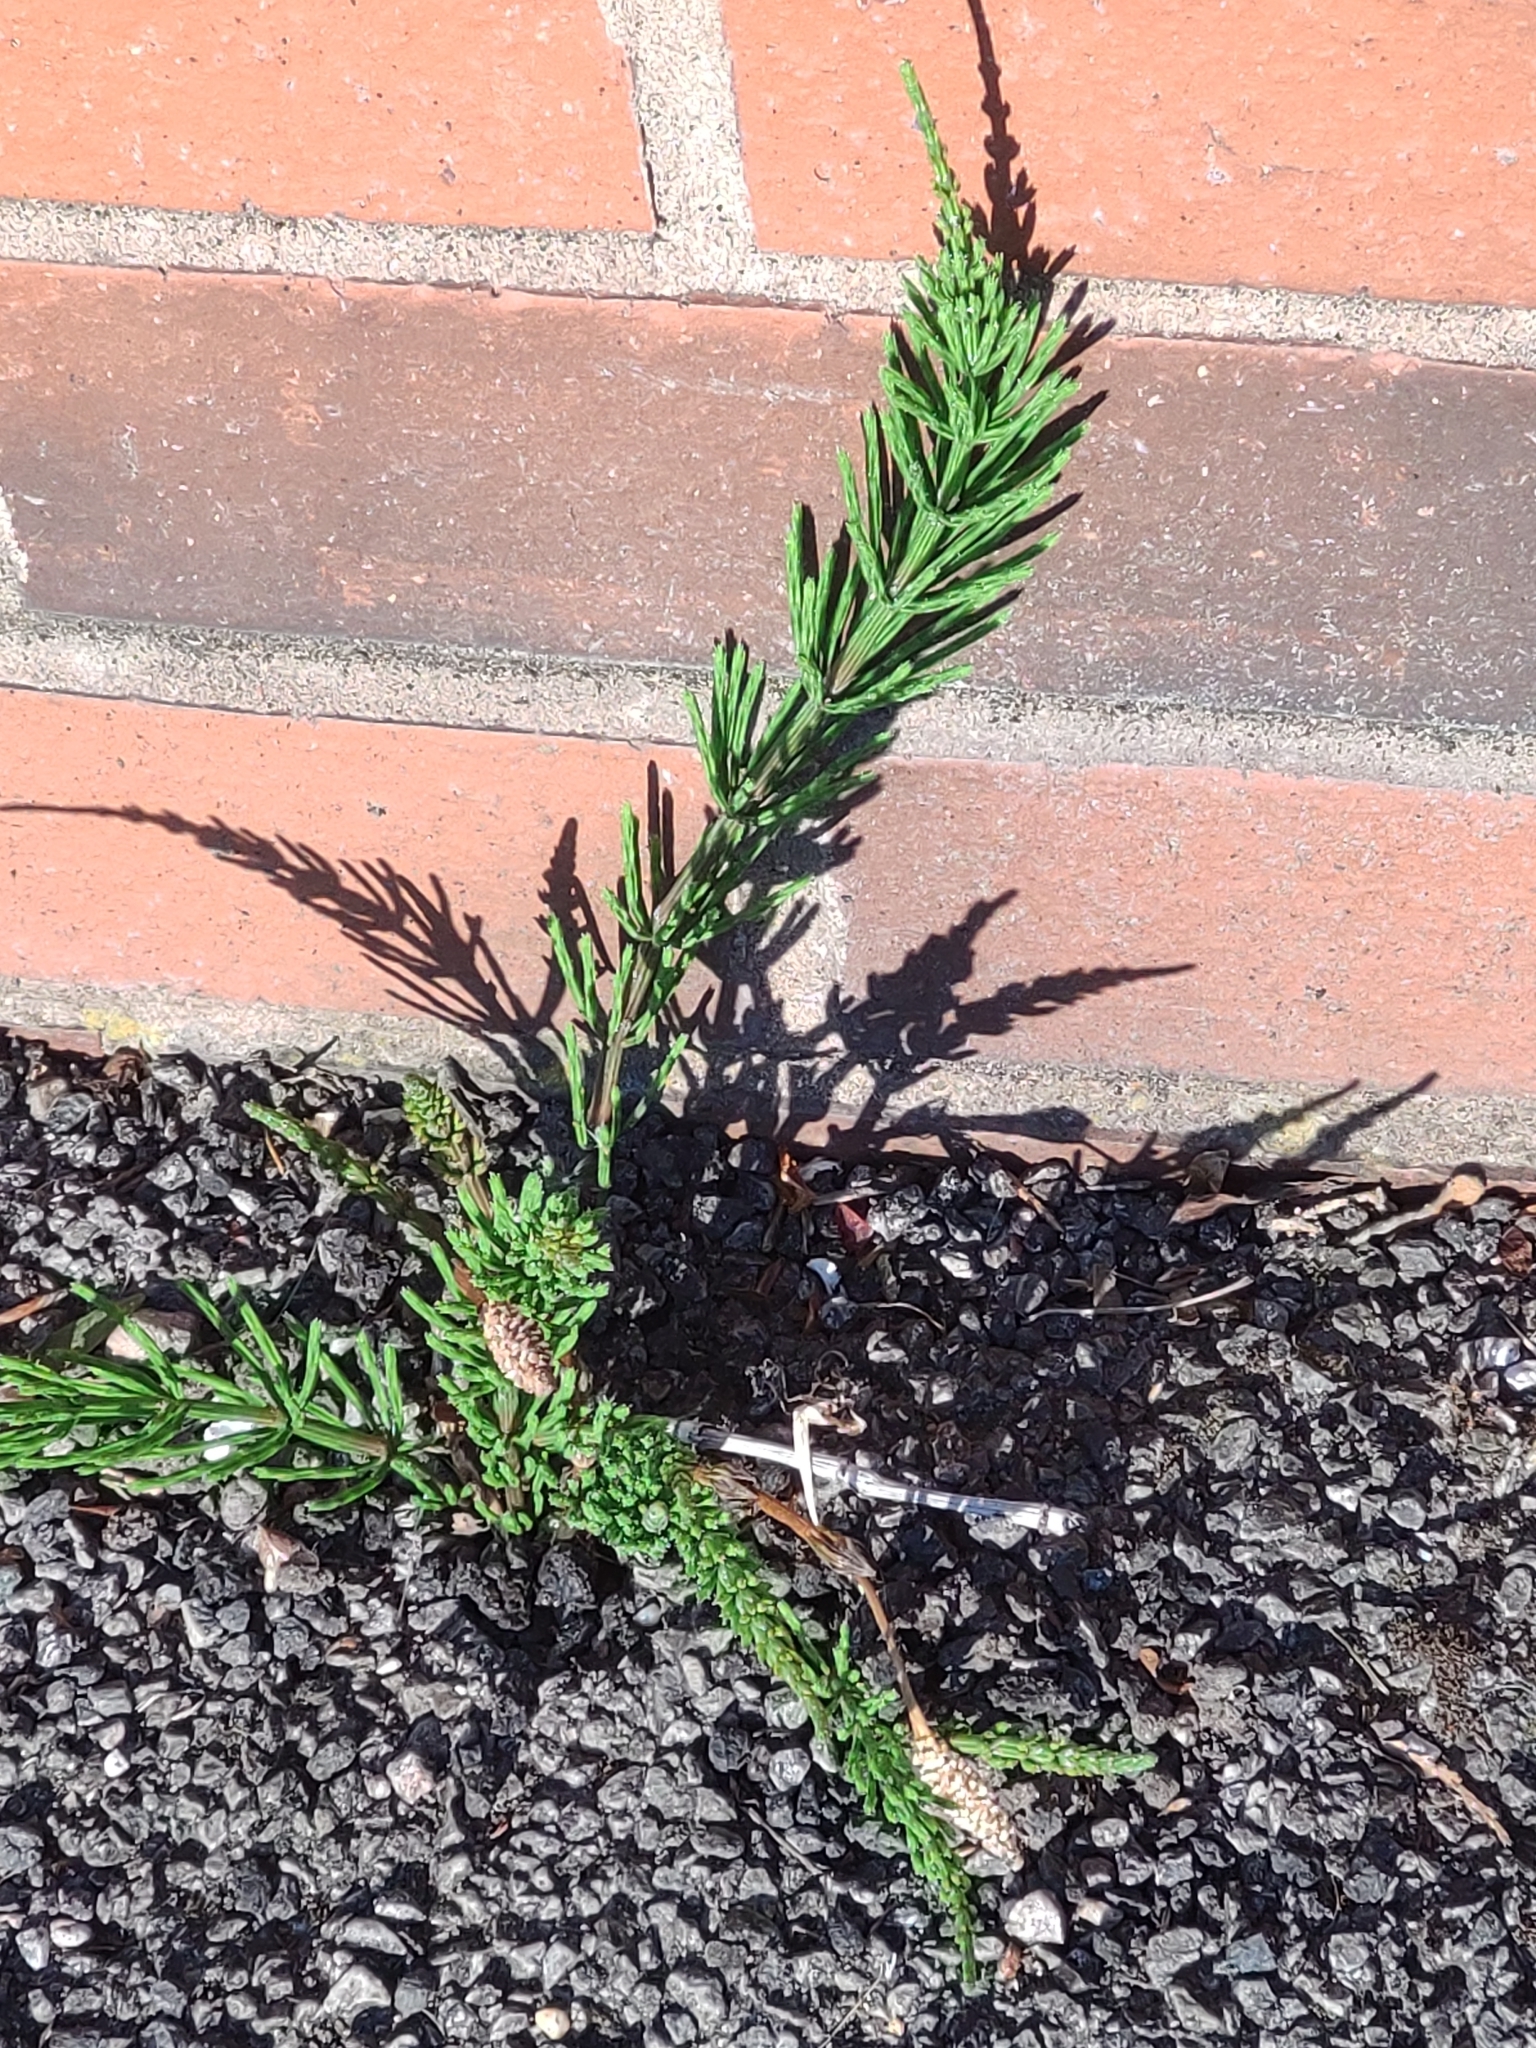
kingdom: Plantae
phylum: Tracheophyta
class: Polypodiopsida
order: Equisetales
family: Equisetaceae
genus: Equisetum
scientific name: Equisetum arvense
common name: Field horsetail
